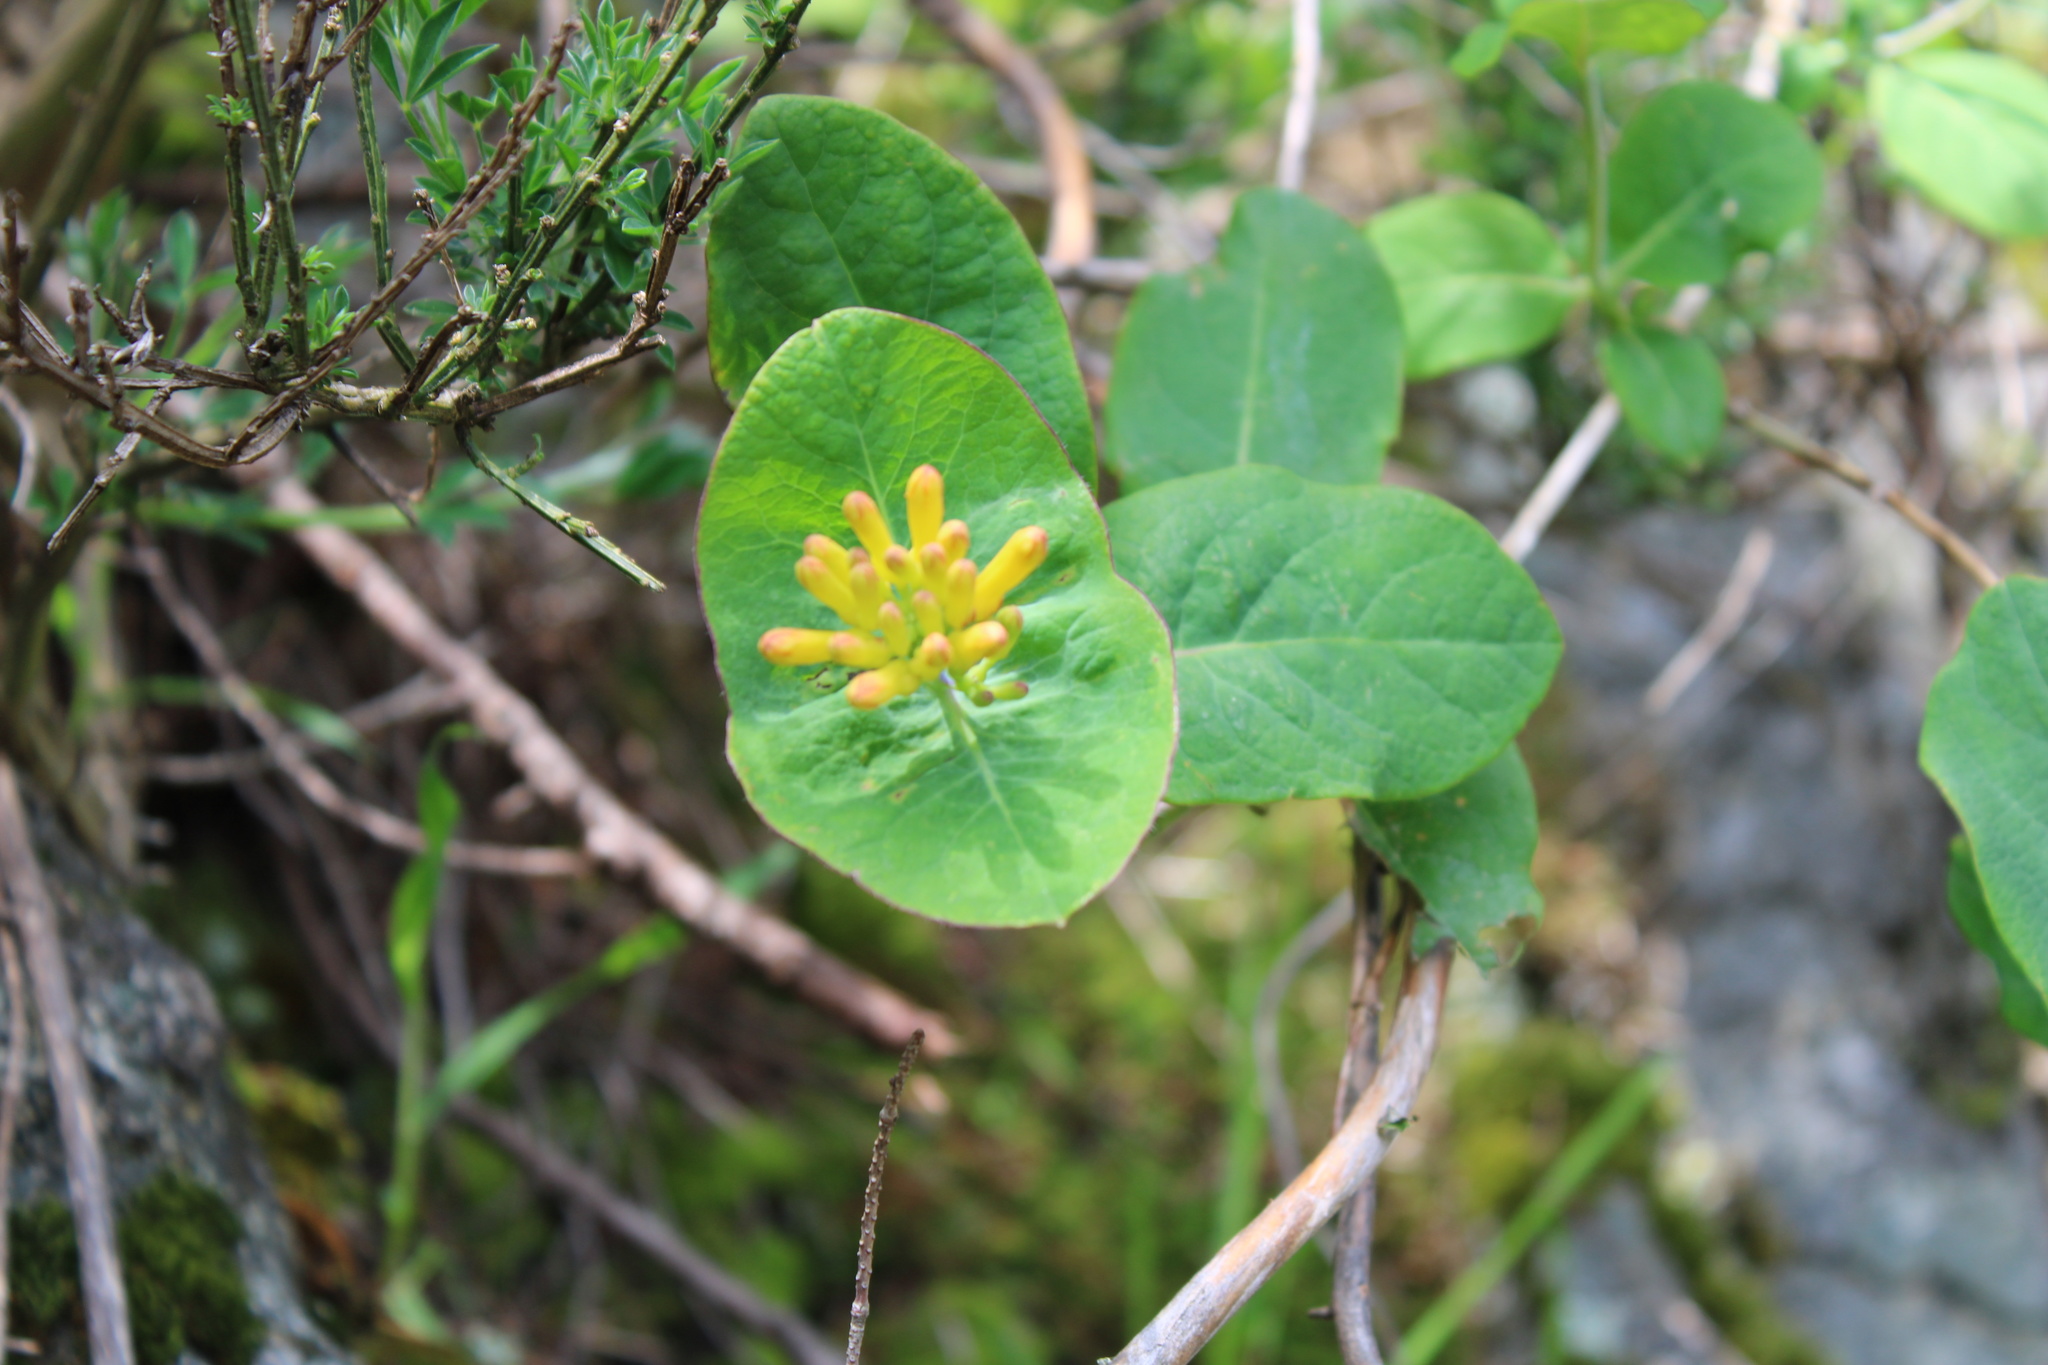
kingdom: Plantae
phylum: Tracheophyta
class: Magnoliopsida
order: Dipsacales
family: Caprifoliaceae
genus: Lonicera
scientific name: Lonicera ciliosa
